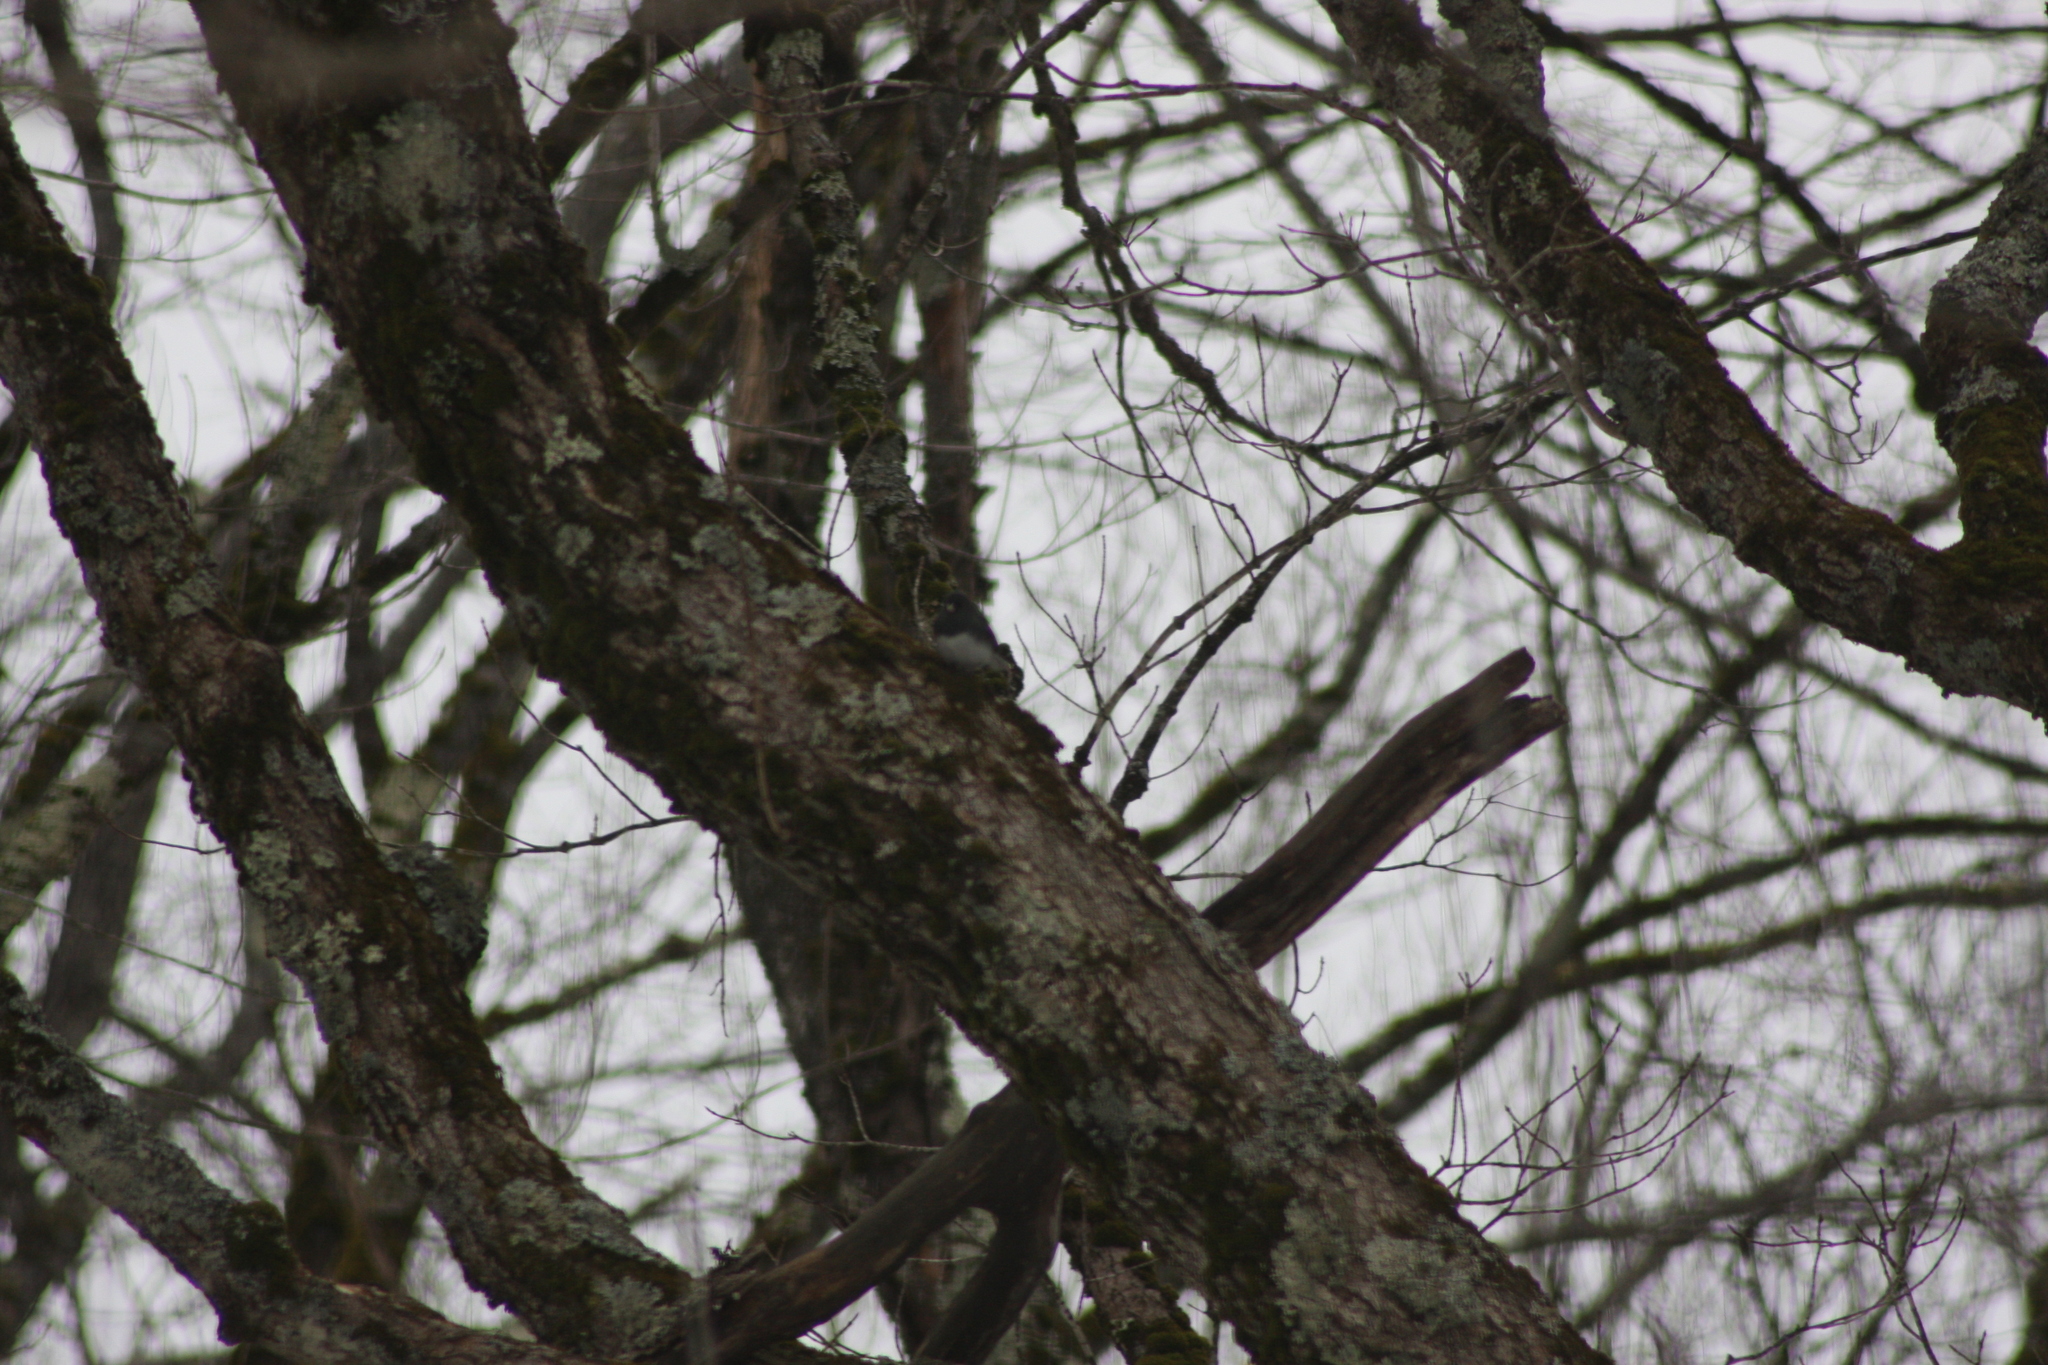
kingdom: Animalia
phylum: Chordata
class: Aves
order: Passeriformes
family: Passerellidae
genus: Junco
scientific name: Junco hyemalis
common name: Dark-eyed junco
